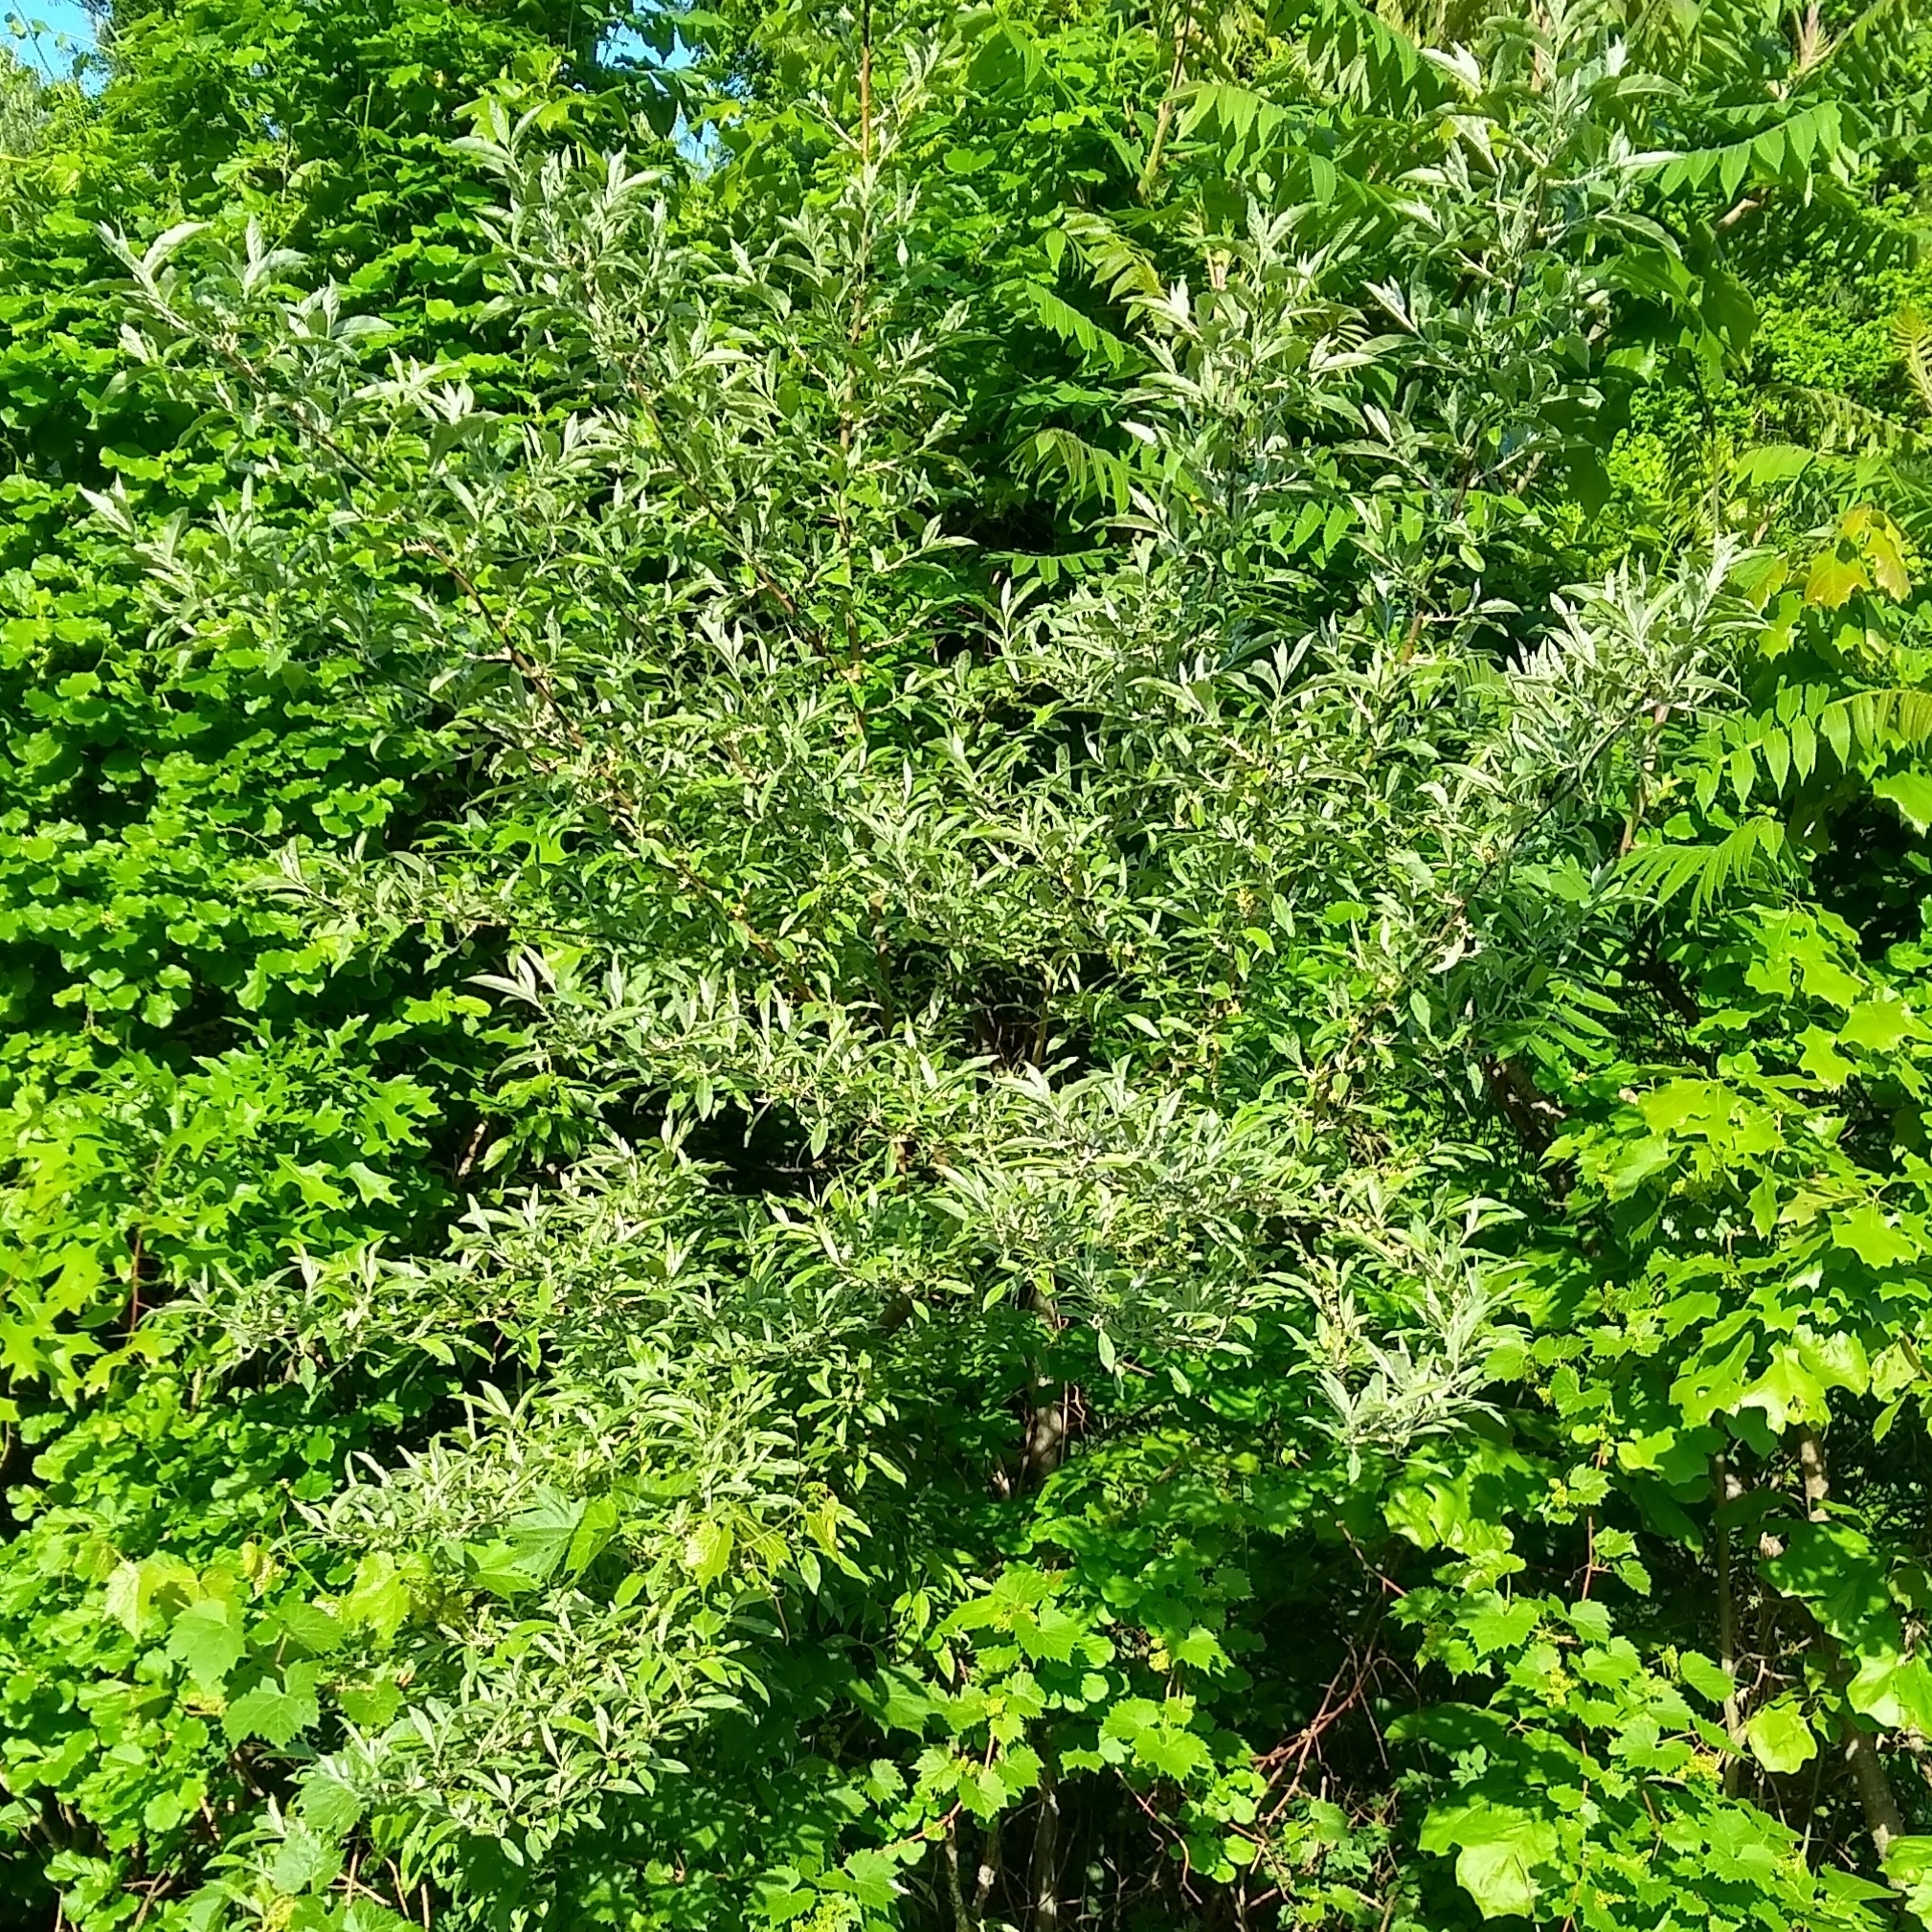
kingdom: Plantae
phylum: Tracheophyta
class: Magnoliopsida
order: Rosales
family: Elaeagnaceae
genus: Elaeagnus
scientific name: Elaeagnus umbellata
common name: Autumn olive
